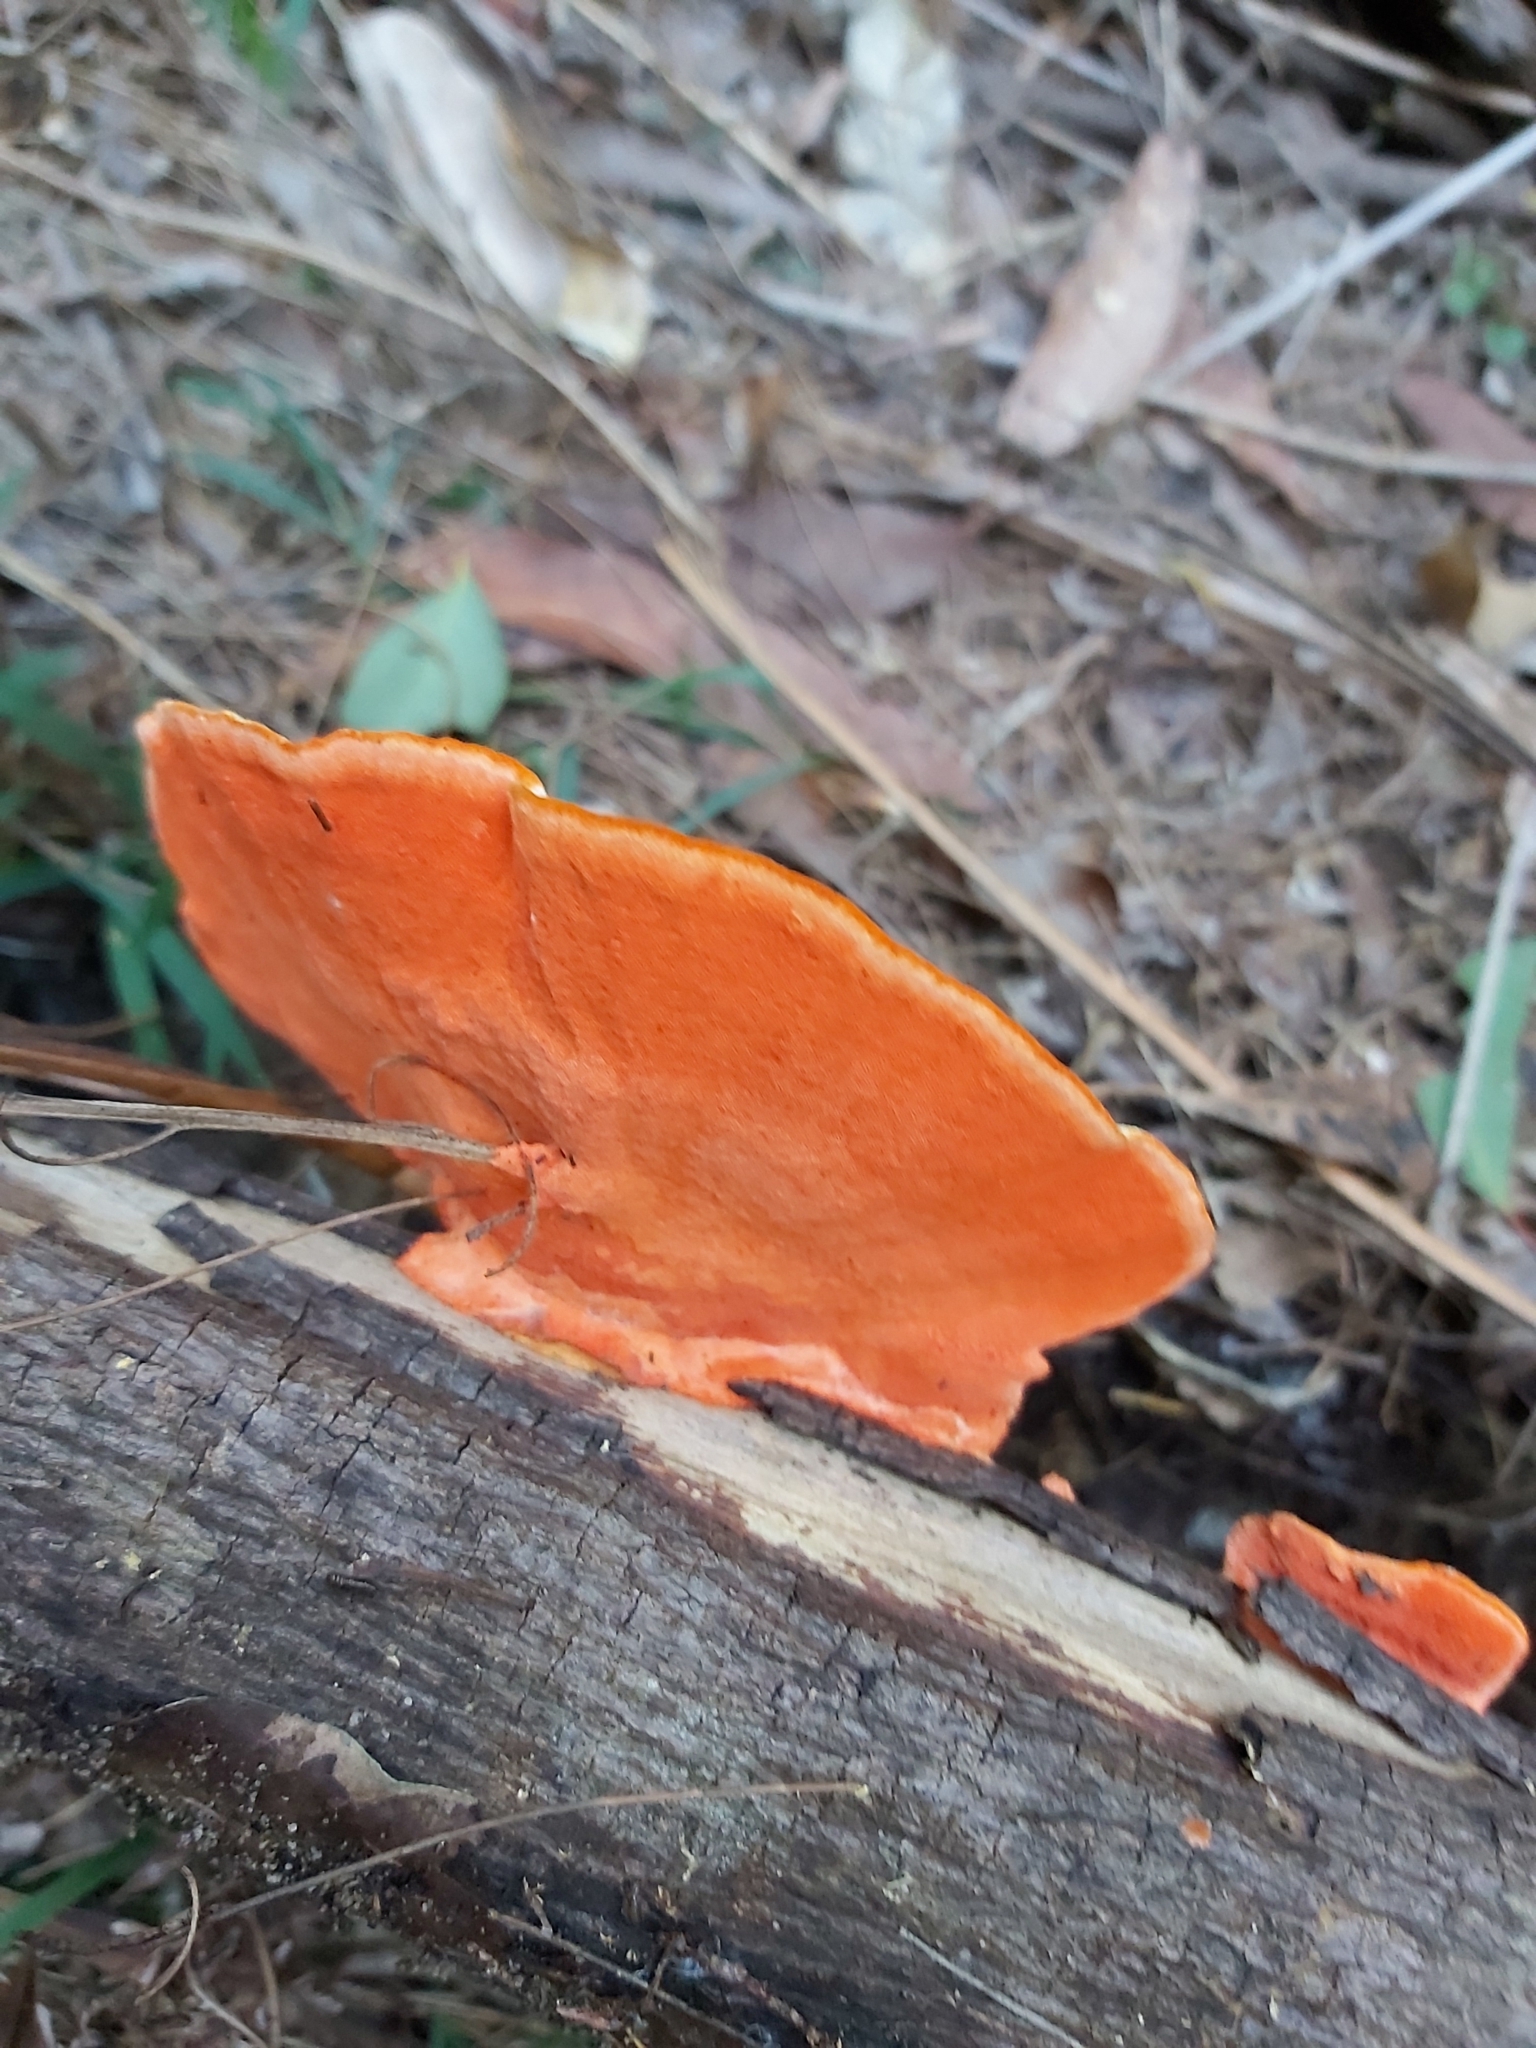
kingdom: Fungi
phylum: Basidiomycota
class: Agaricomycetes
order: Polyporales
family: Polyporaceae
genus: Trametes
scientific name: Trametes coccinea
